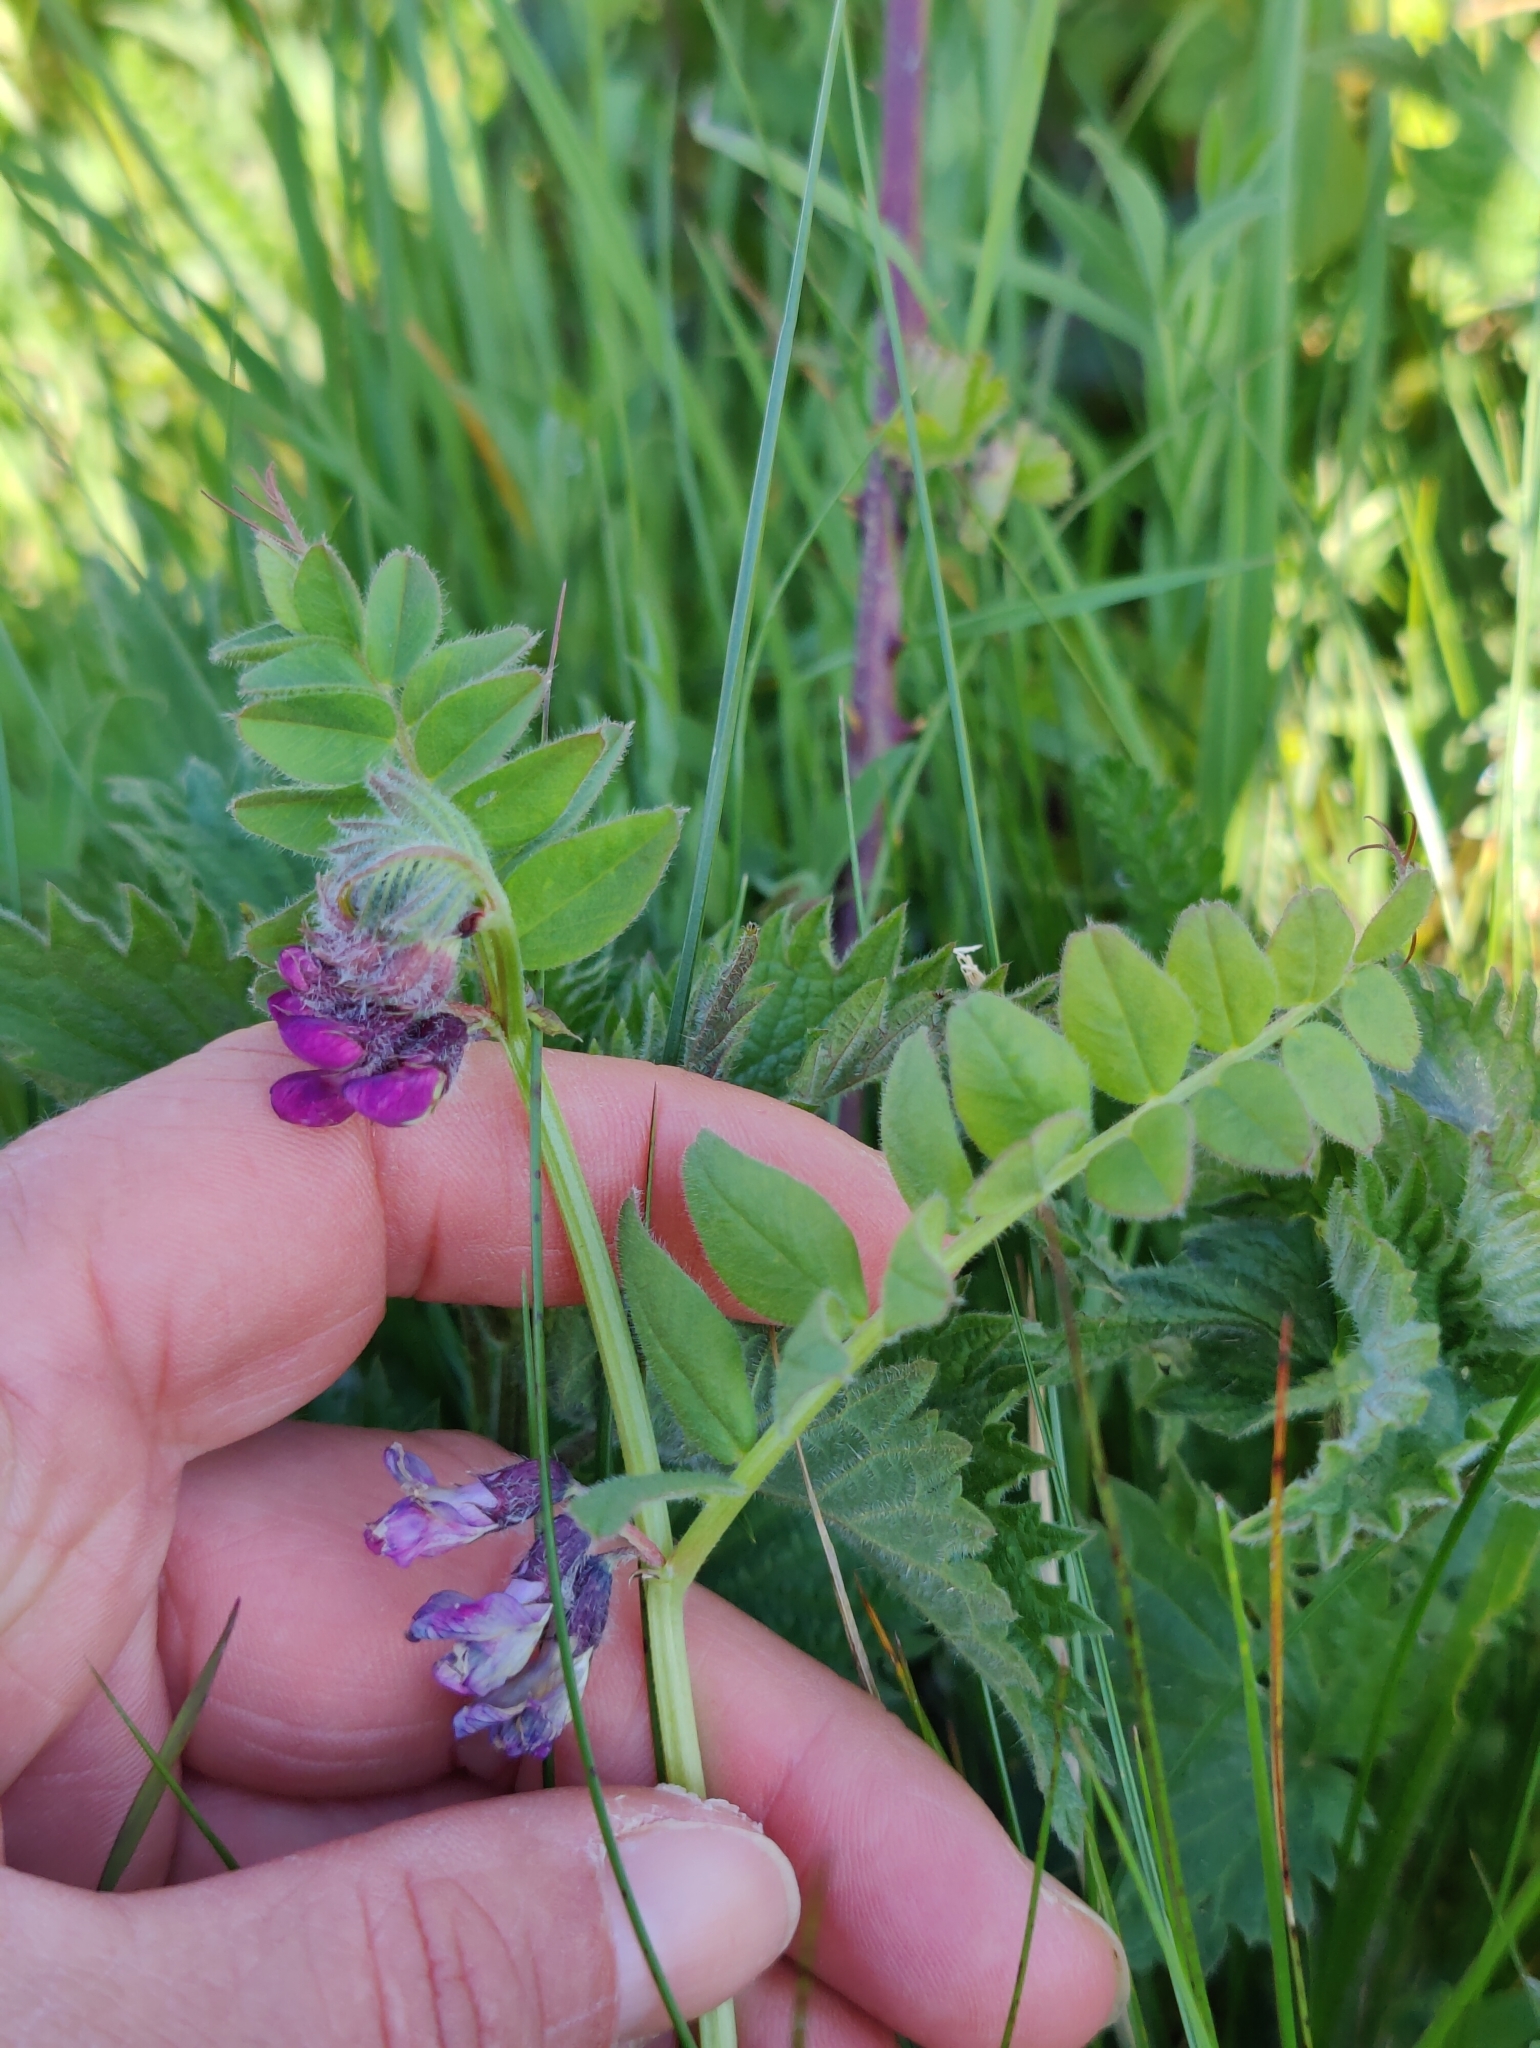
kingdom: Plantae
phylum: Tracheophyta
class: Magnoliopsida
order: Fabales
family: Fabaceae
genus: Vicia
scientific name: Vicia sepium
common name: Bush vetch
